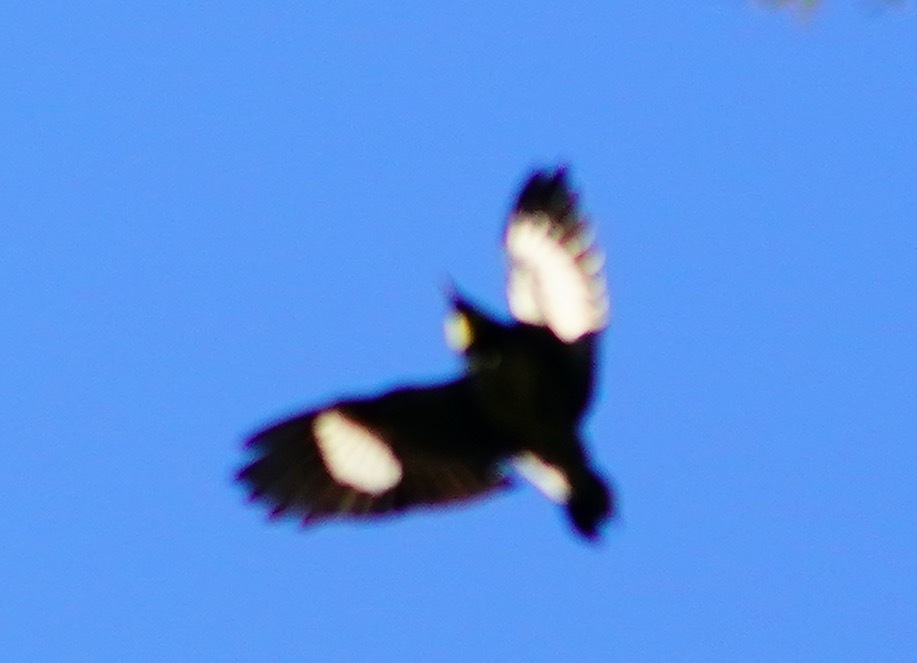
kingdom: Animalia
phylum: Chordata
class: Aves
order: Piciformes
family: Picidae
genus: Melanerpes
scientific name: Melanerpes formicivorus
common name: Acorn woodpecker
